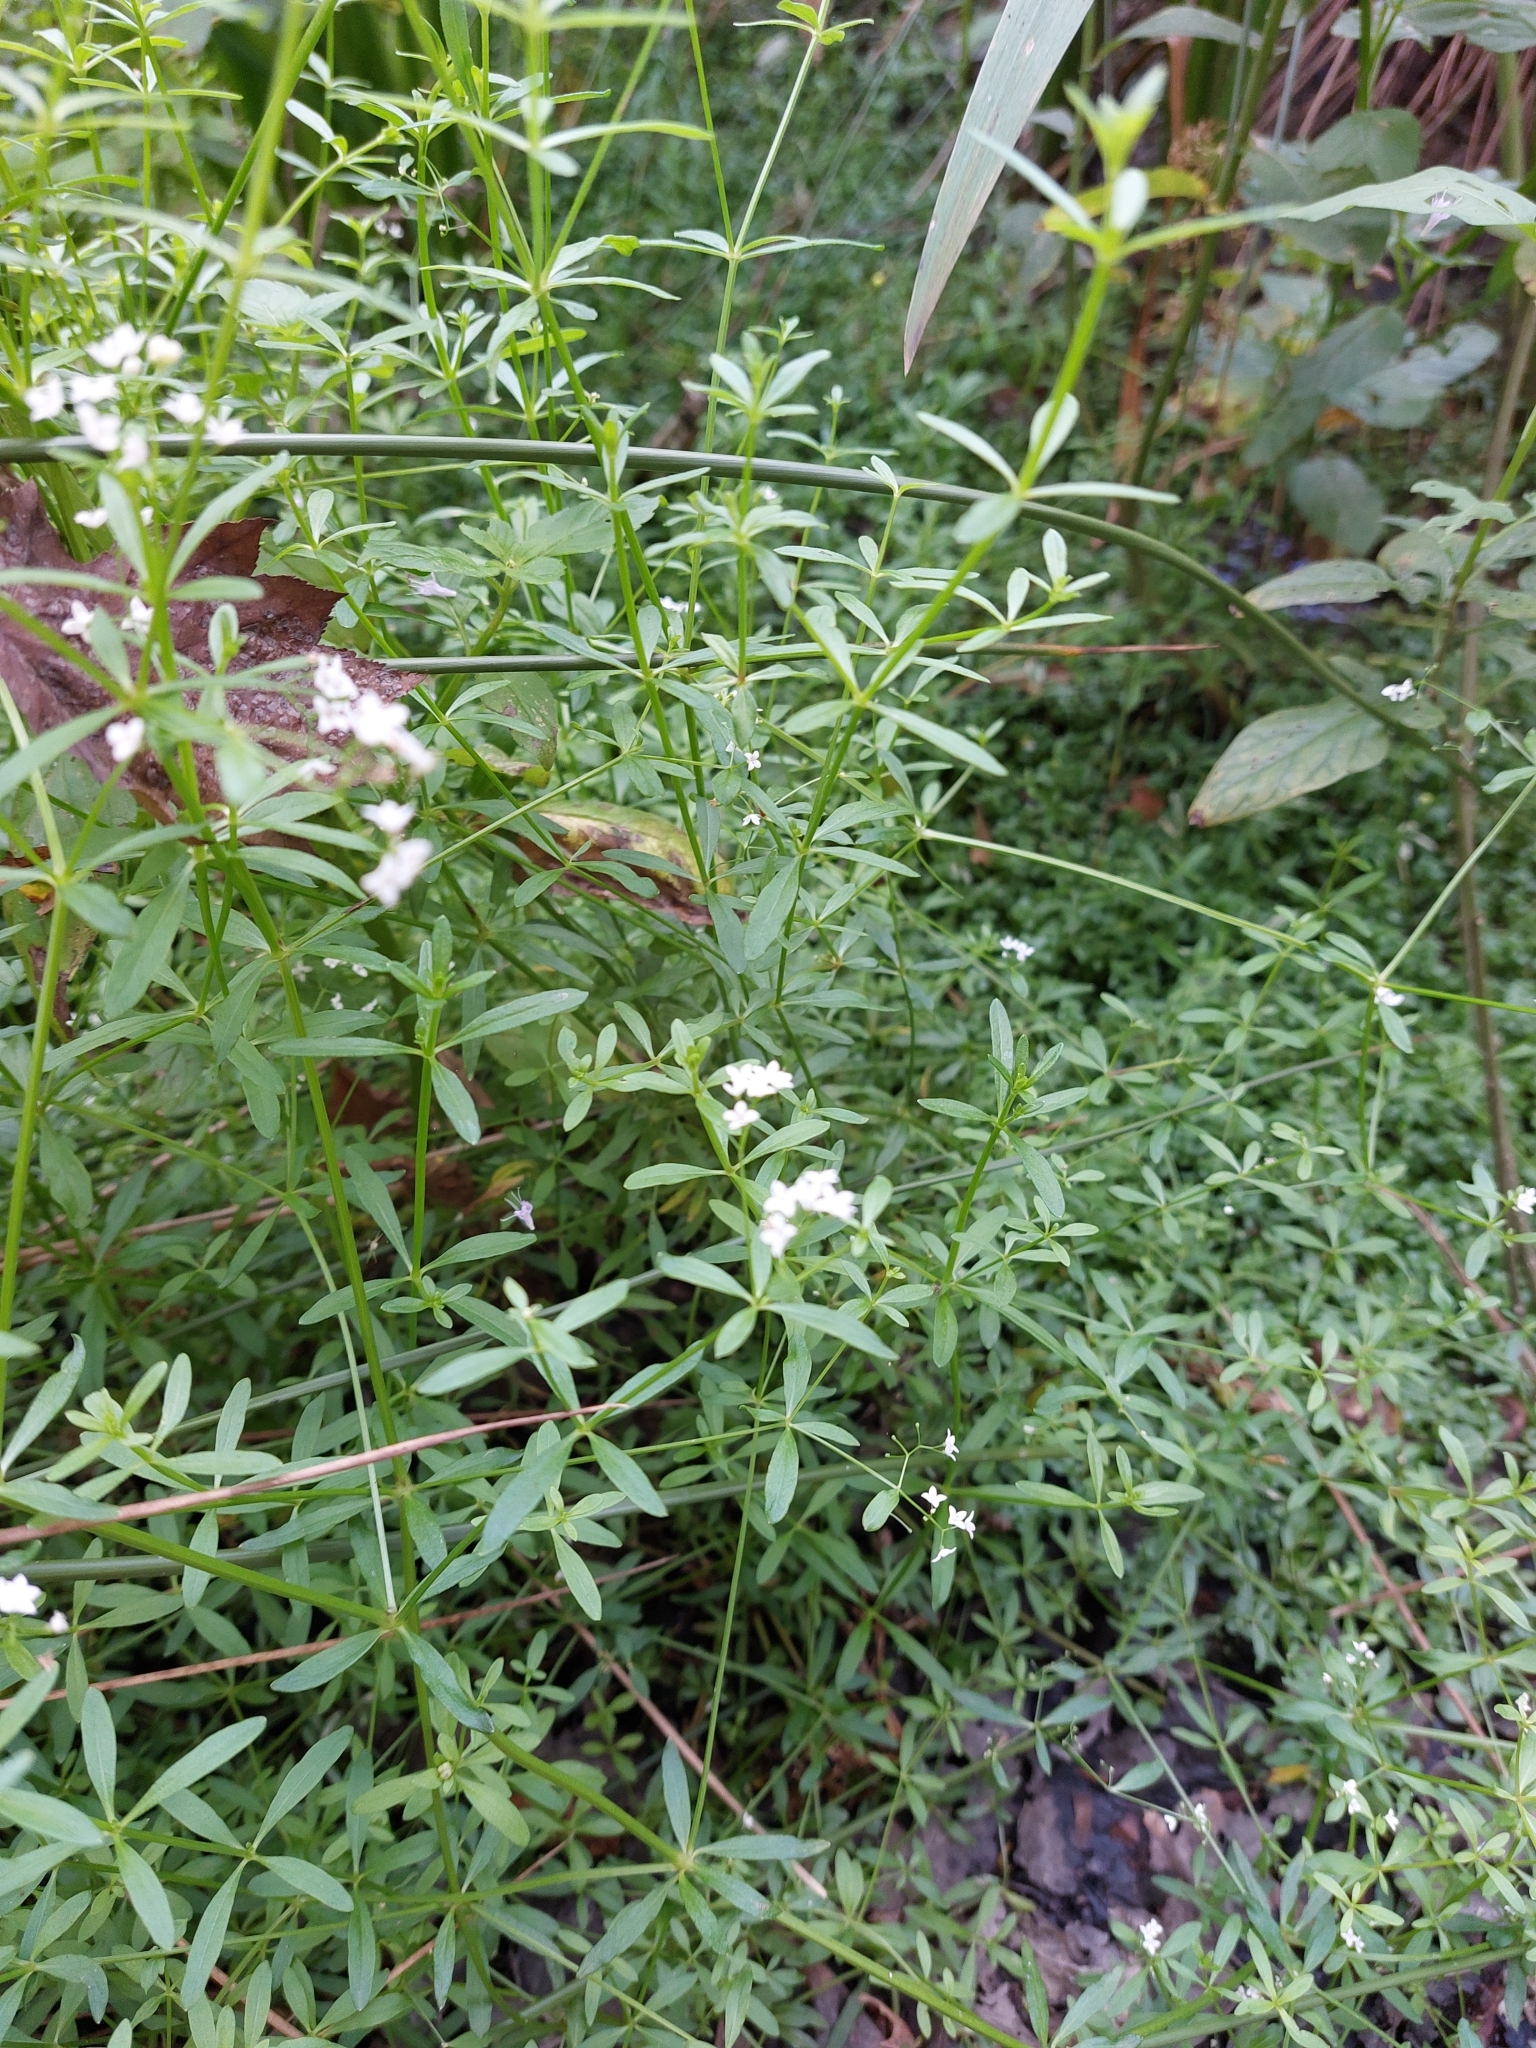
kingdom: Plantae
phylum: Tracheophyta
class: Magnoliopsida
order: Gentianales
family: Rubiaceae
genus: Galium
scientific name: Galium palustre
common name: Common marsh-bedstraw
